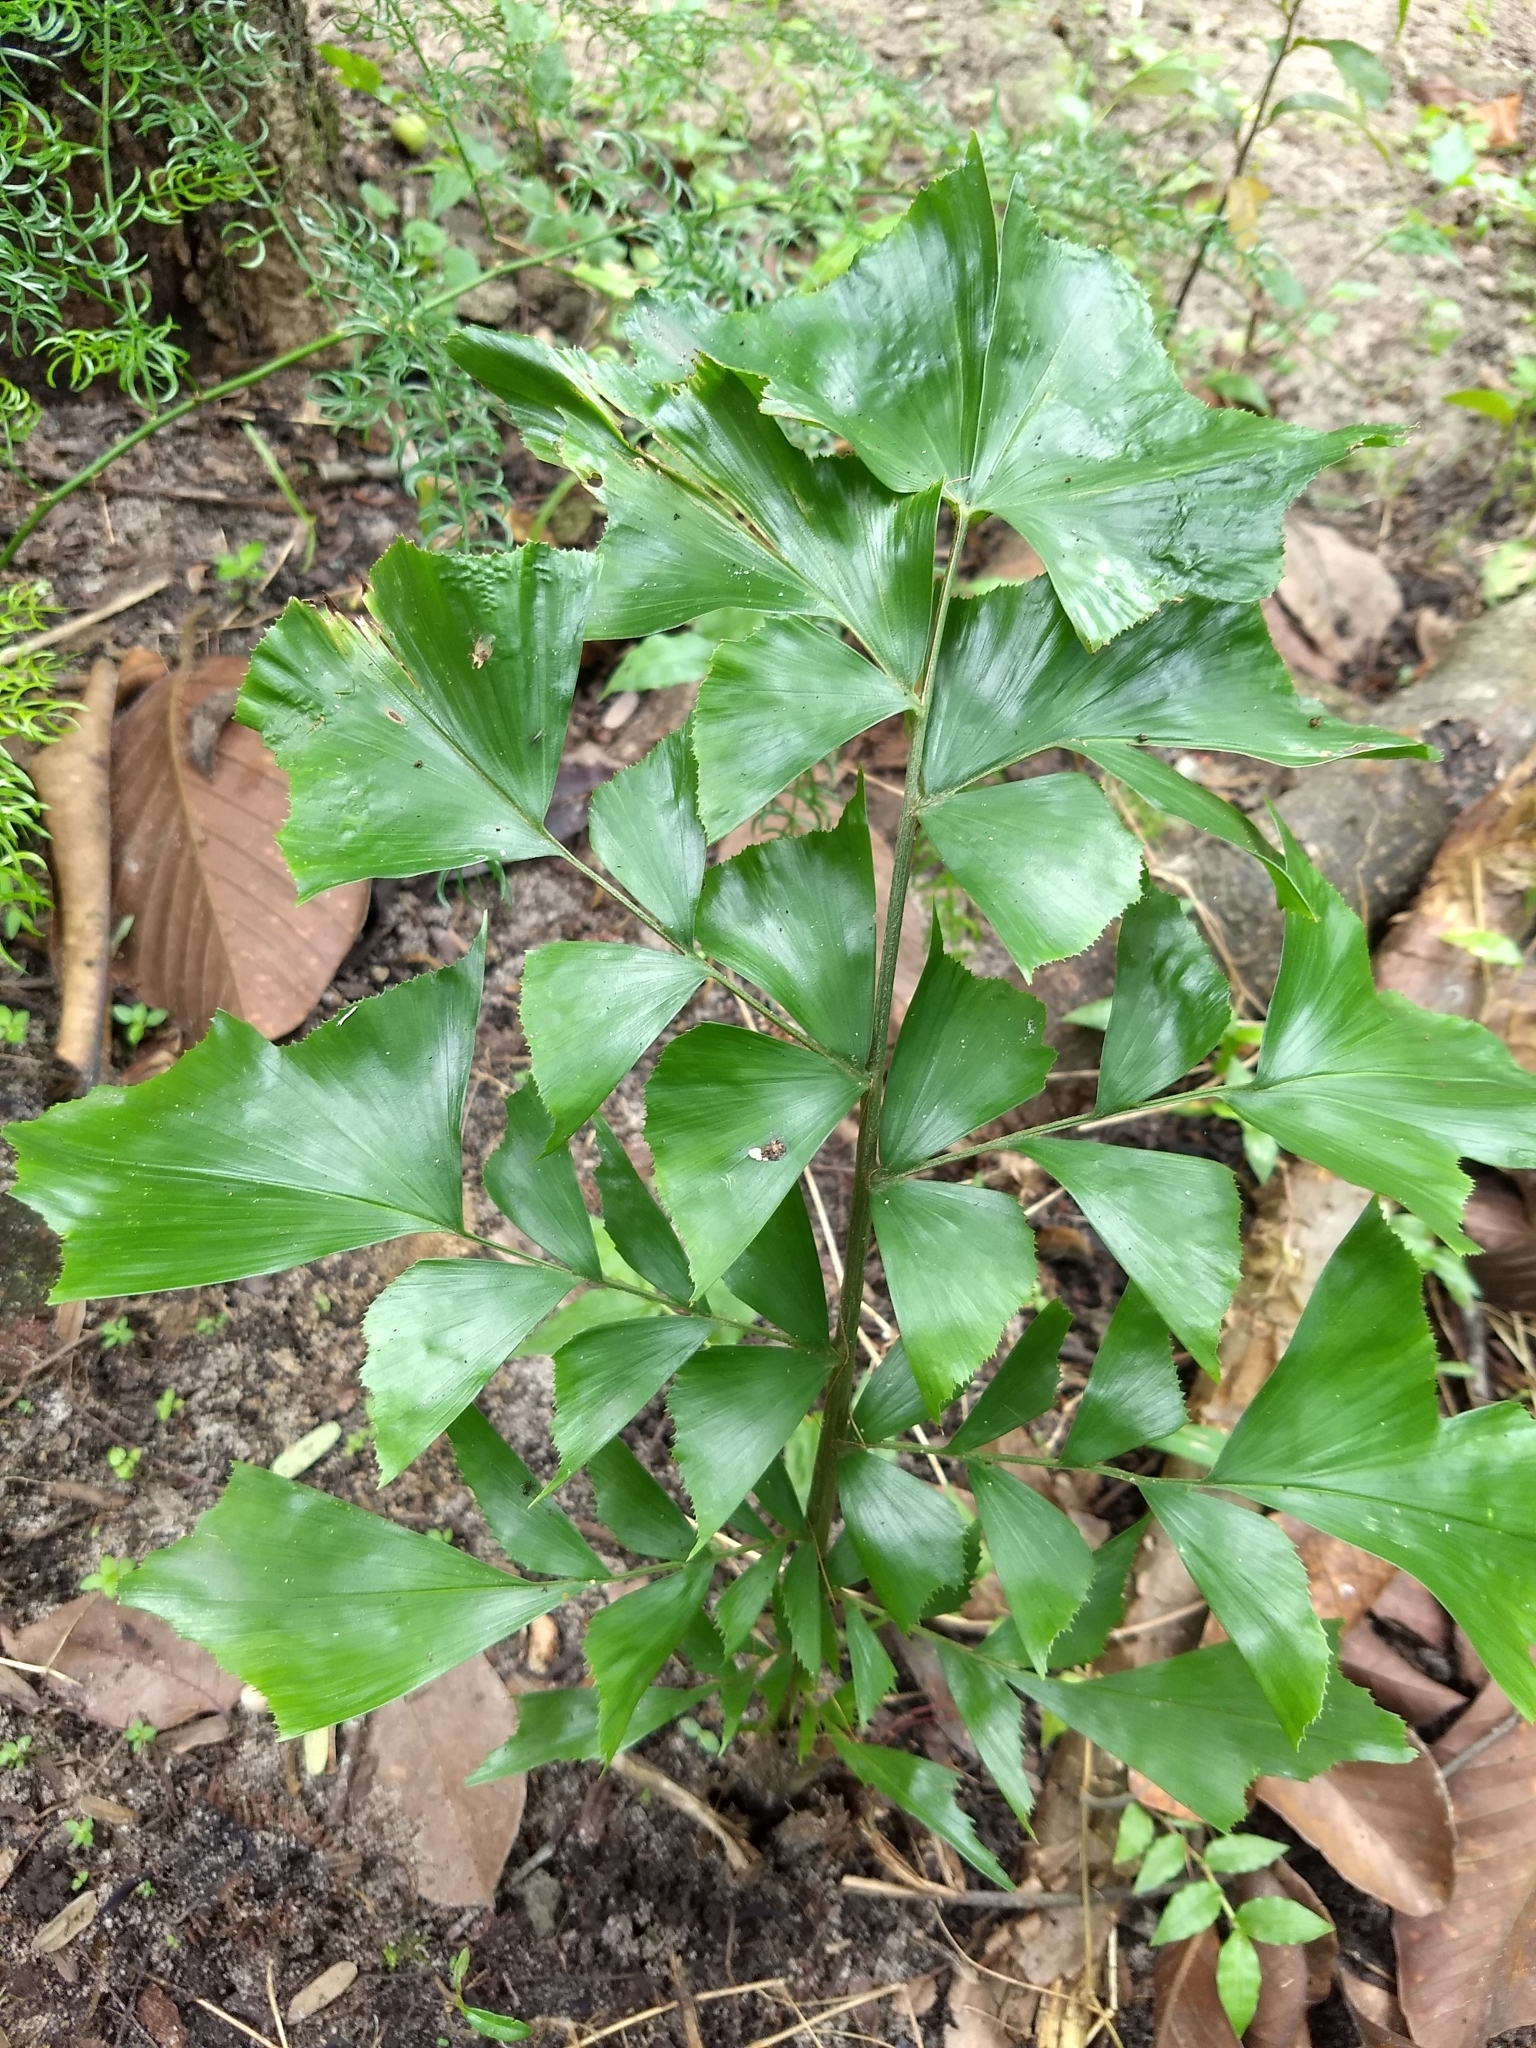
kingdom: Plantae
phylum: Tracheophyta
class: Liliopsida
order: Arecales
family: Arecaceae
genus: Caryota
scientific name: Caryota urens
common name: Jaggery palm
